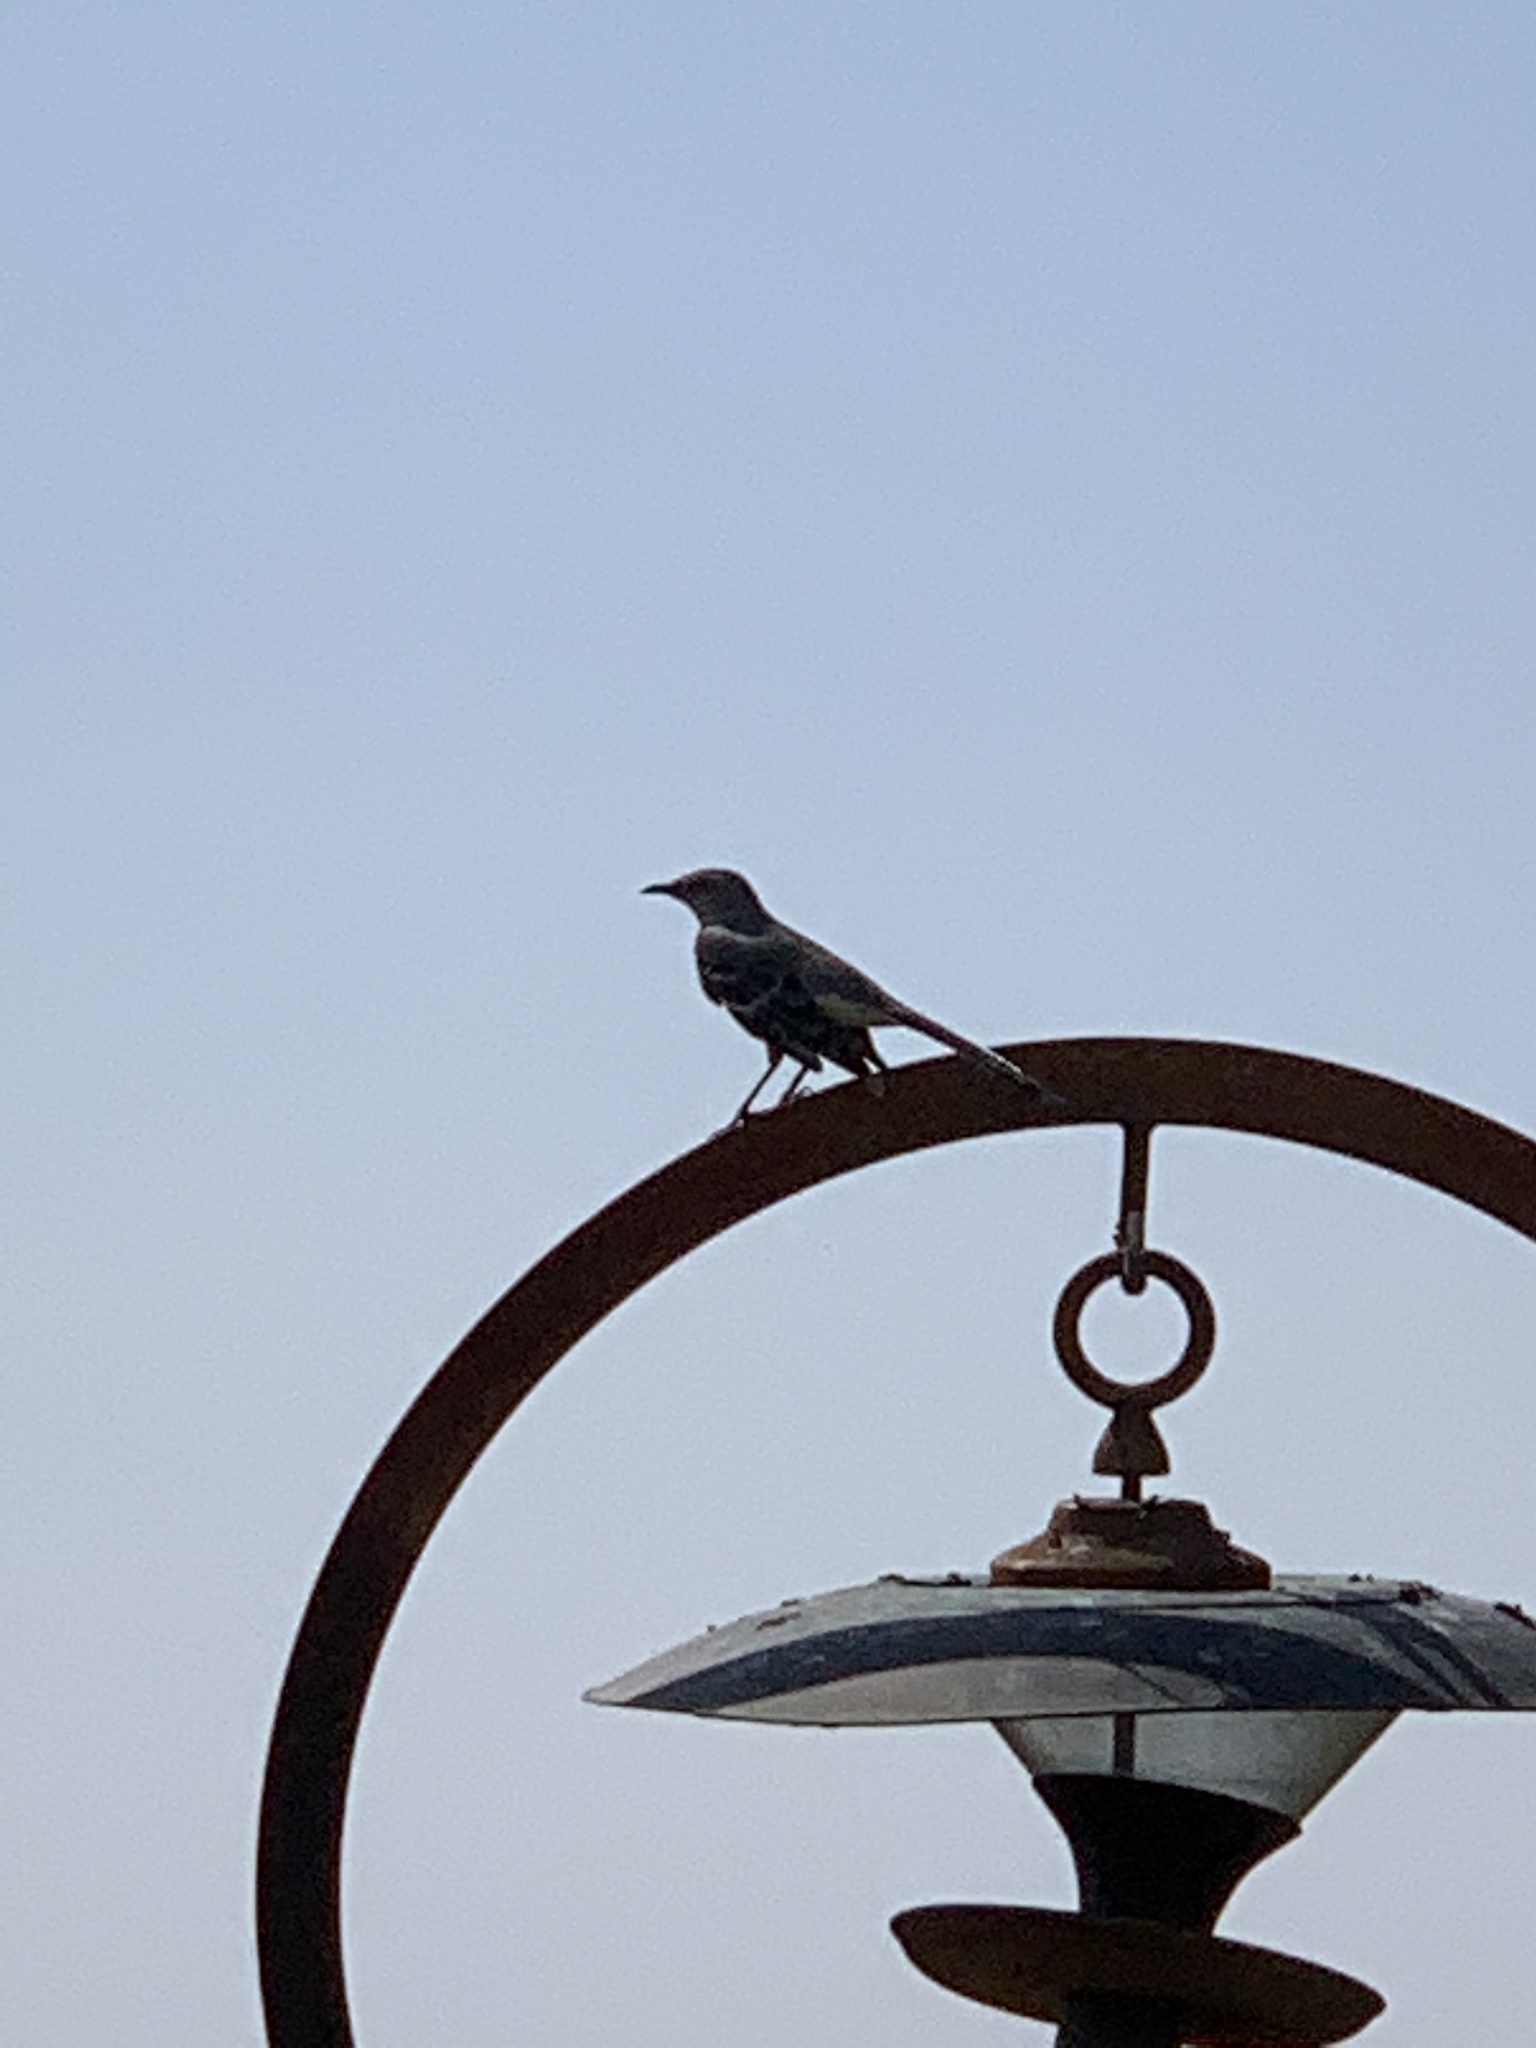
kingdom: Animalia
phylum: Chordata
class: Aves
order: Passeriformes
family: Mimidae
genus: Mimus
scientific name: Mimus polyglottos
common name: Northern mockingbird
